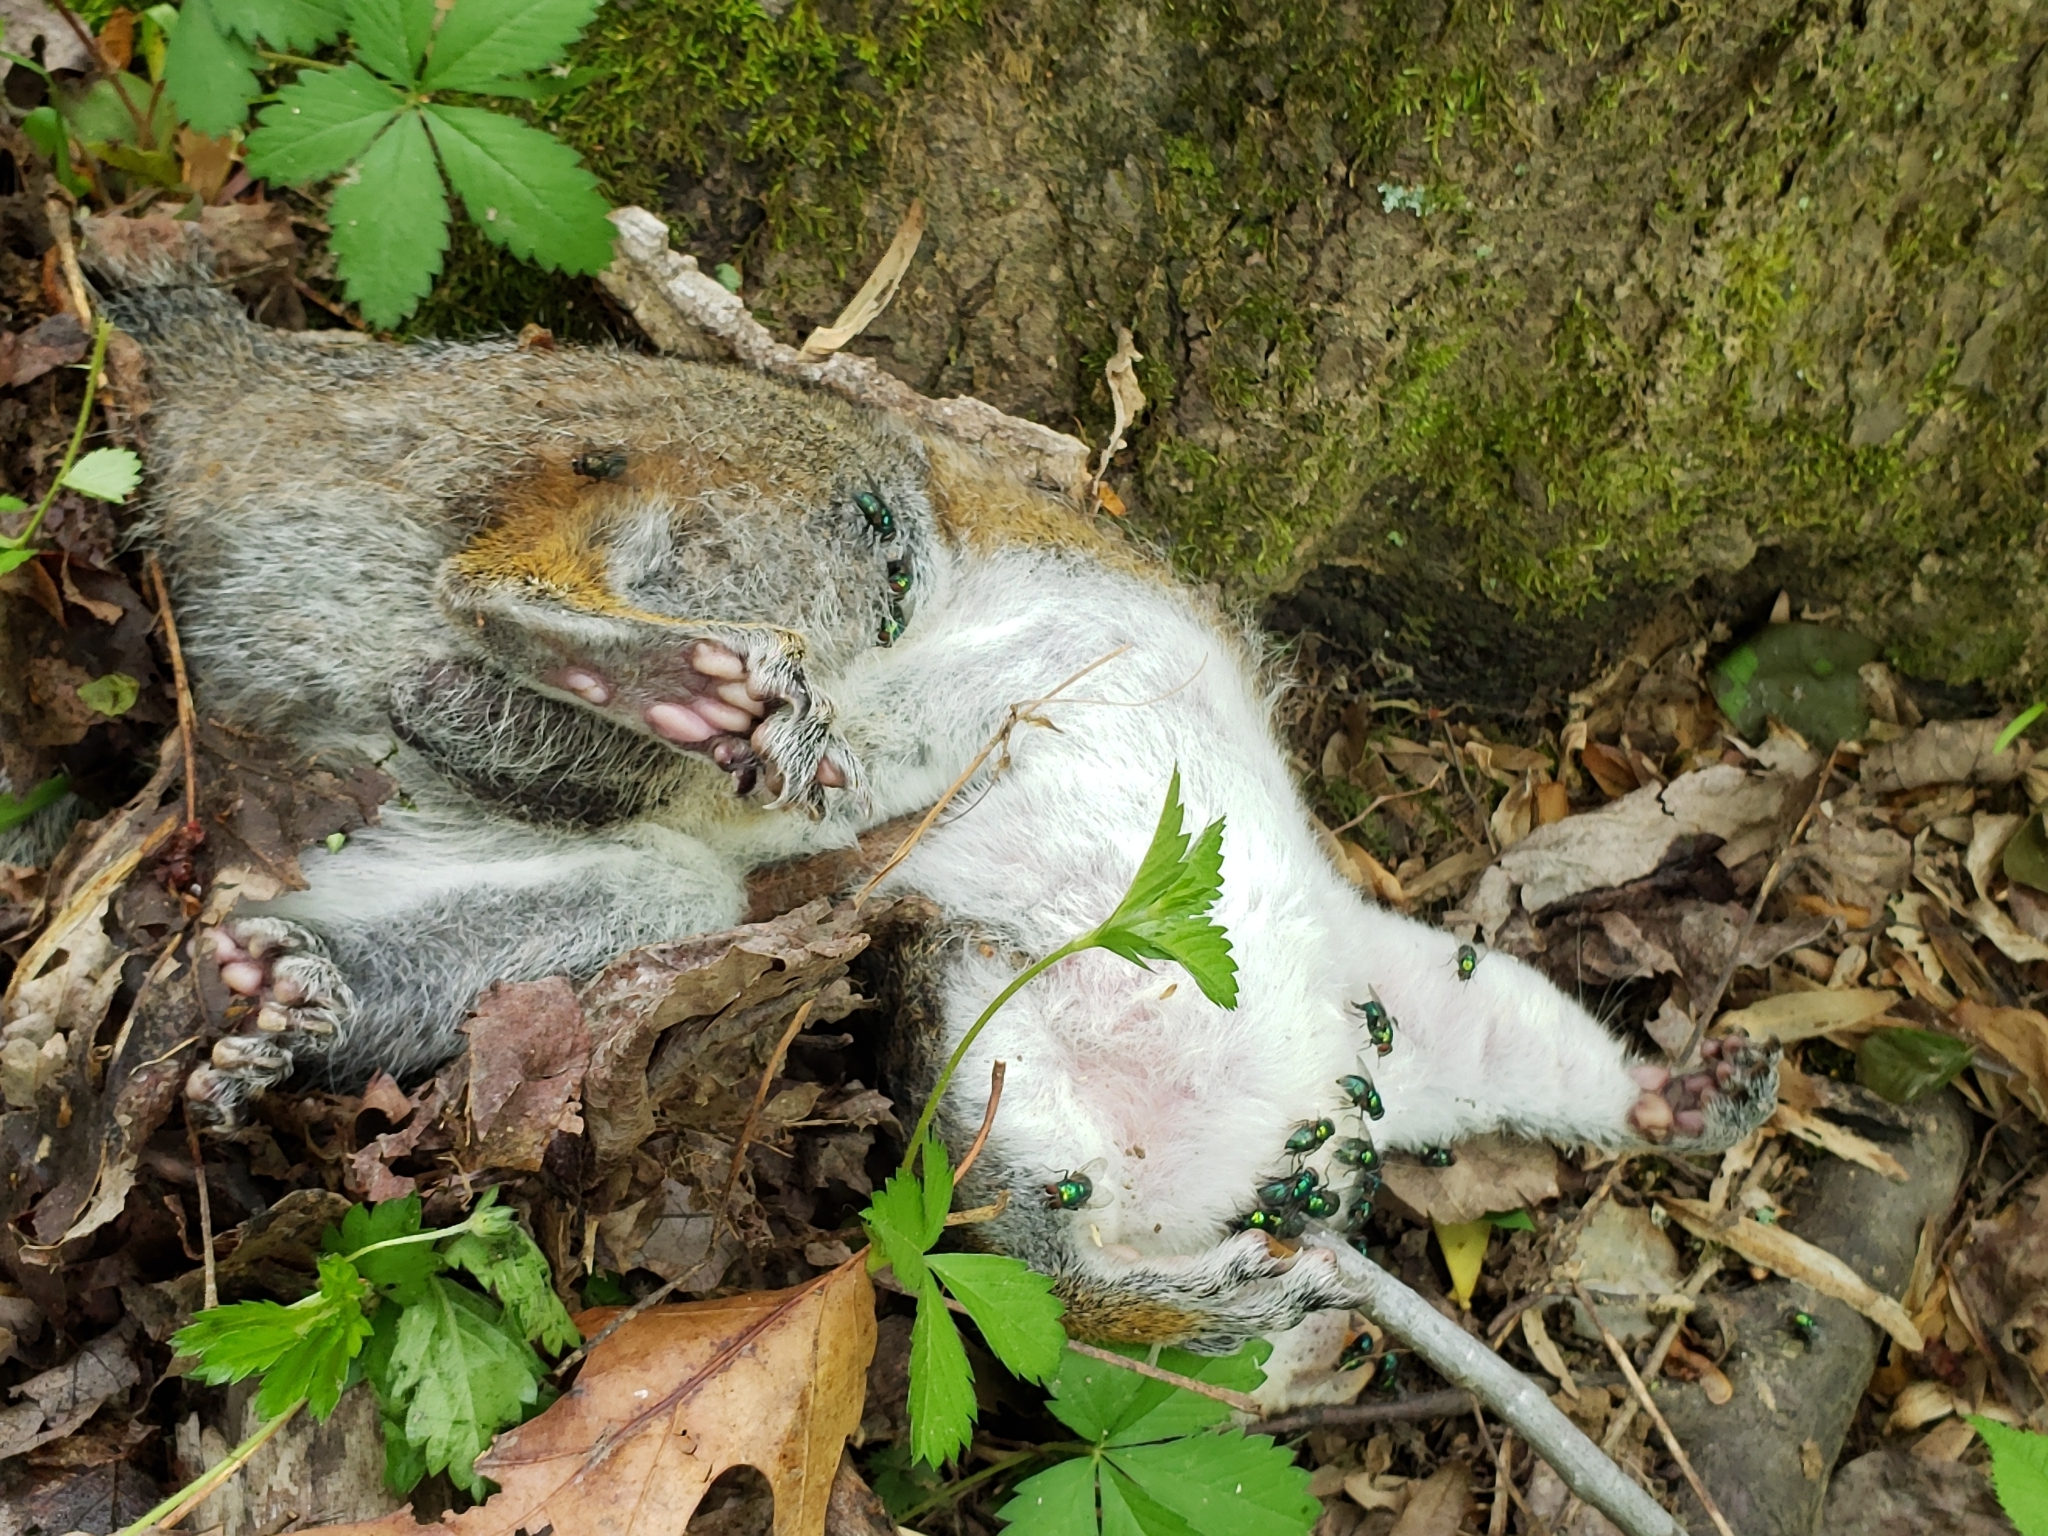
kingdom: Animalia
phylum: Chordata
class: Mammalia
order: Rodentia
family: Sciuridae
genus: Sciurus
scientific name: Sciurus carolinensis
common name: Eastern gray squirrel
